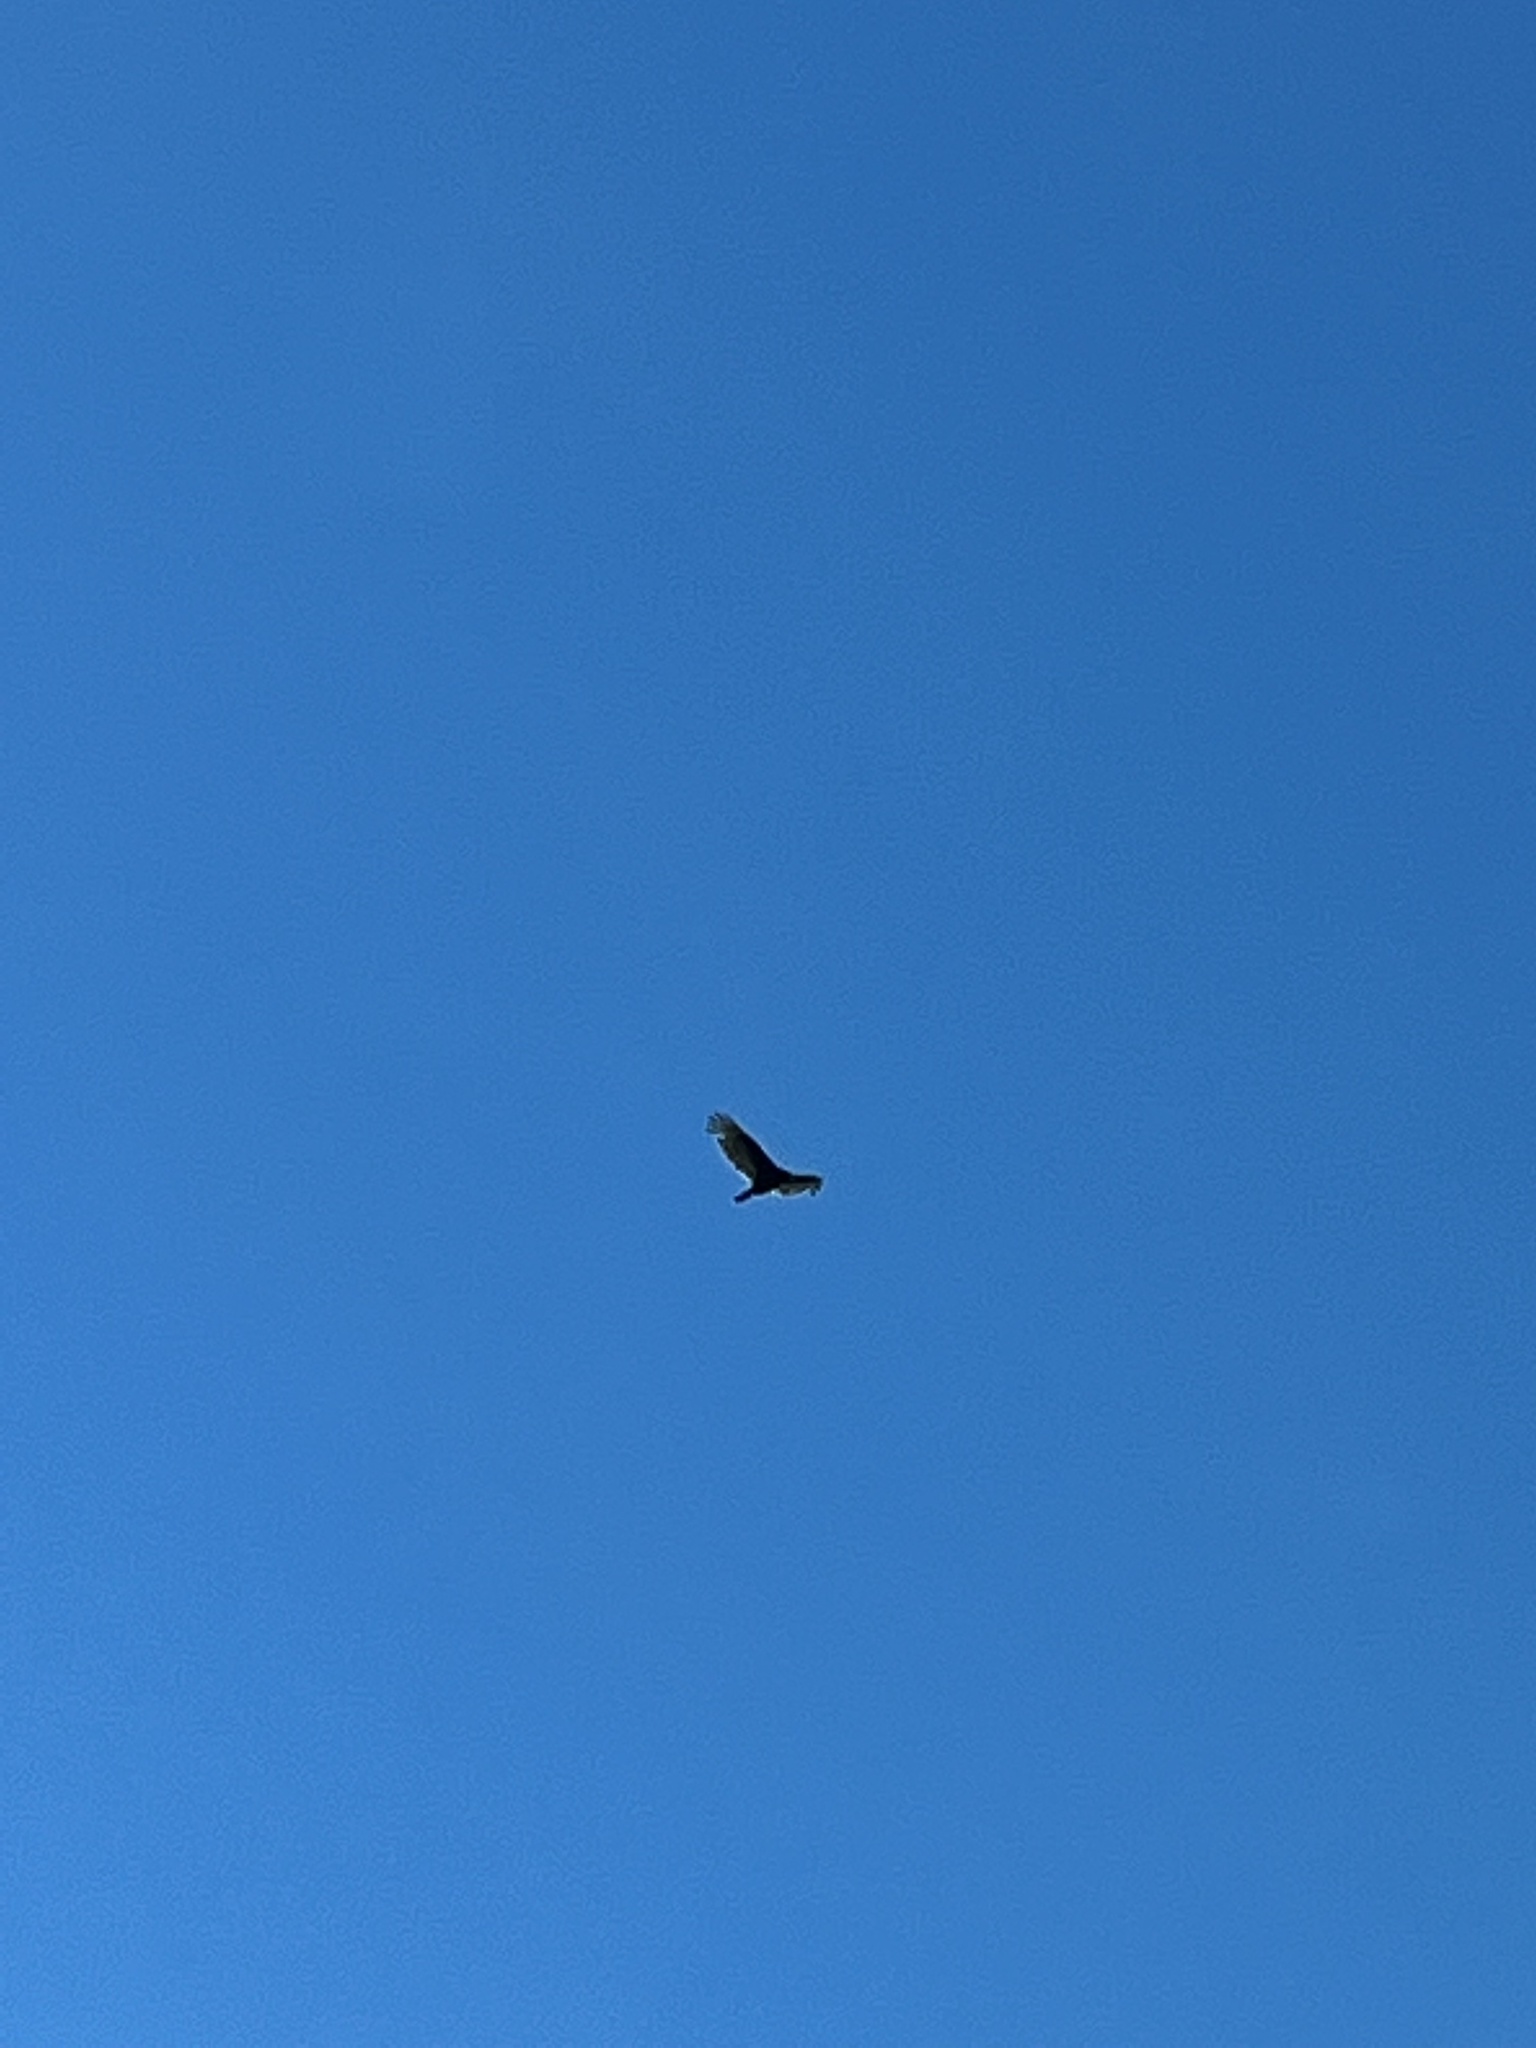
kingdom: Animalia
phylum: Chordata
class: Aves
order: Accipitriformes
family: Cathartidae
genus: Cathartes
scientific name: Cathartes aura
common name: Turkey vulture
